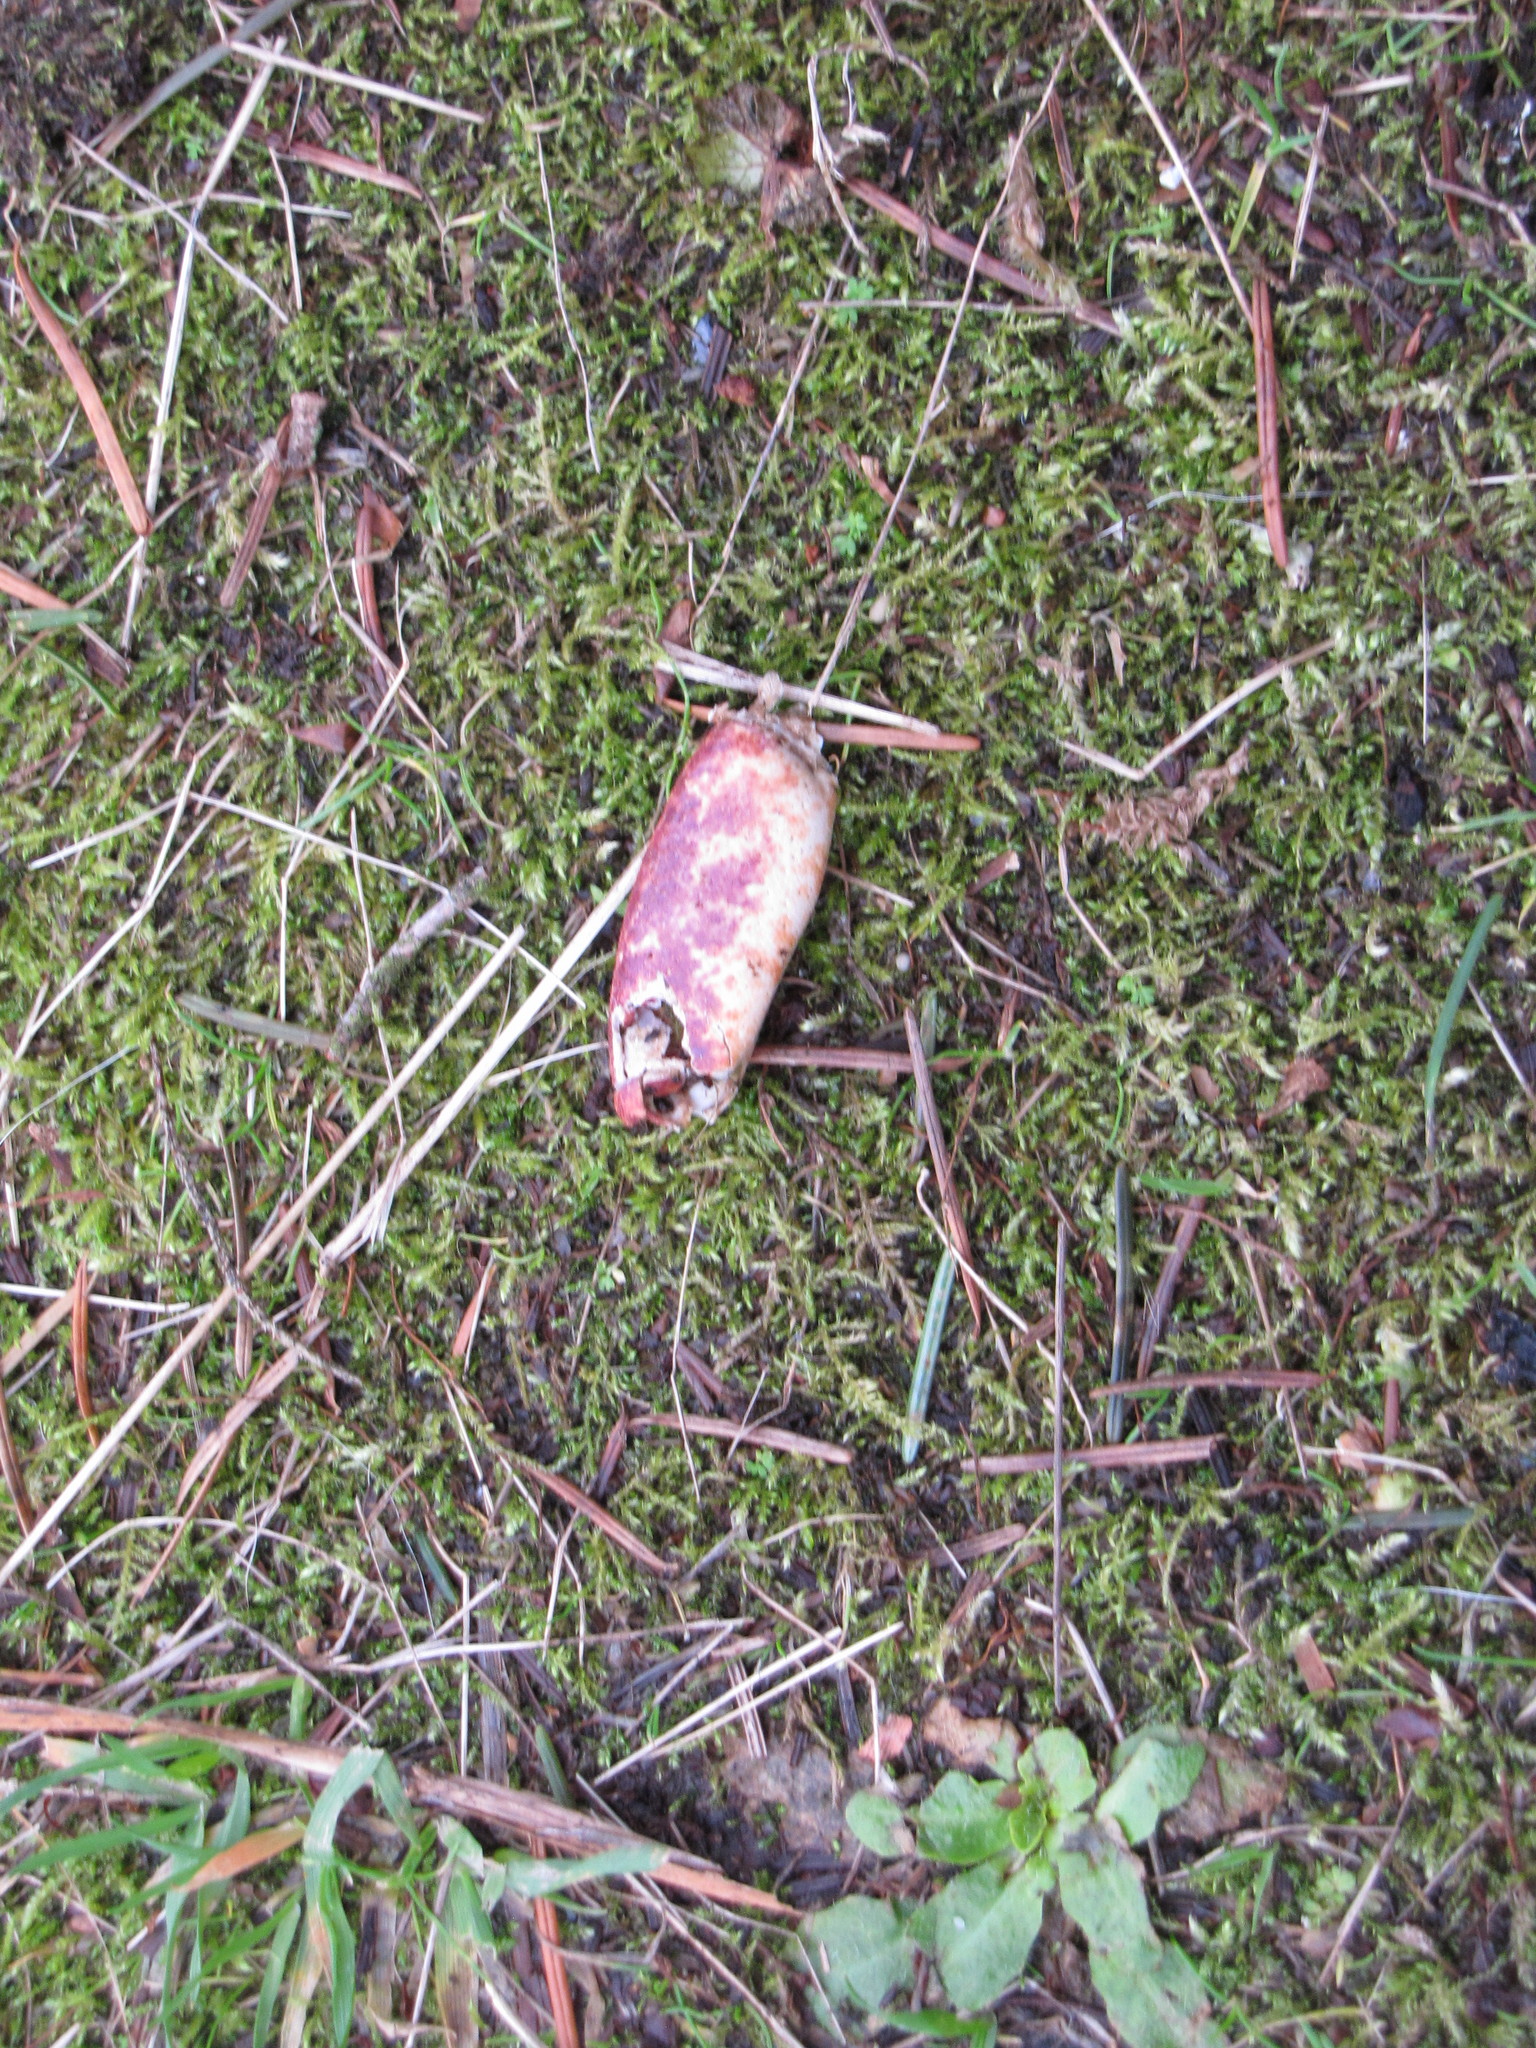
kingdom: Animalia
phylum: Arthropoda
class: Malacostraca
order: Decapoda
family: Cancridae
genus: Cancer
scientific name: Cancer productus
